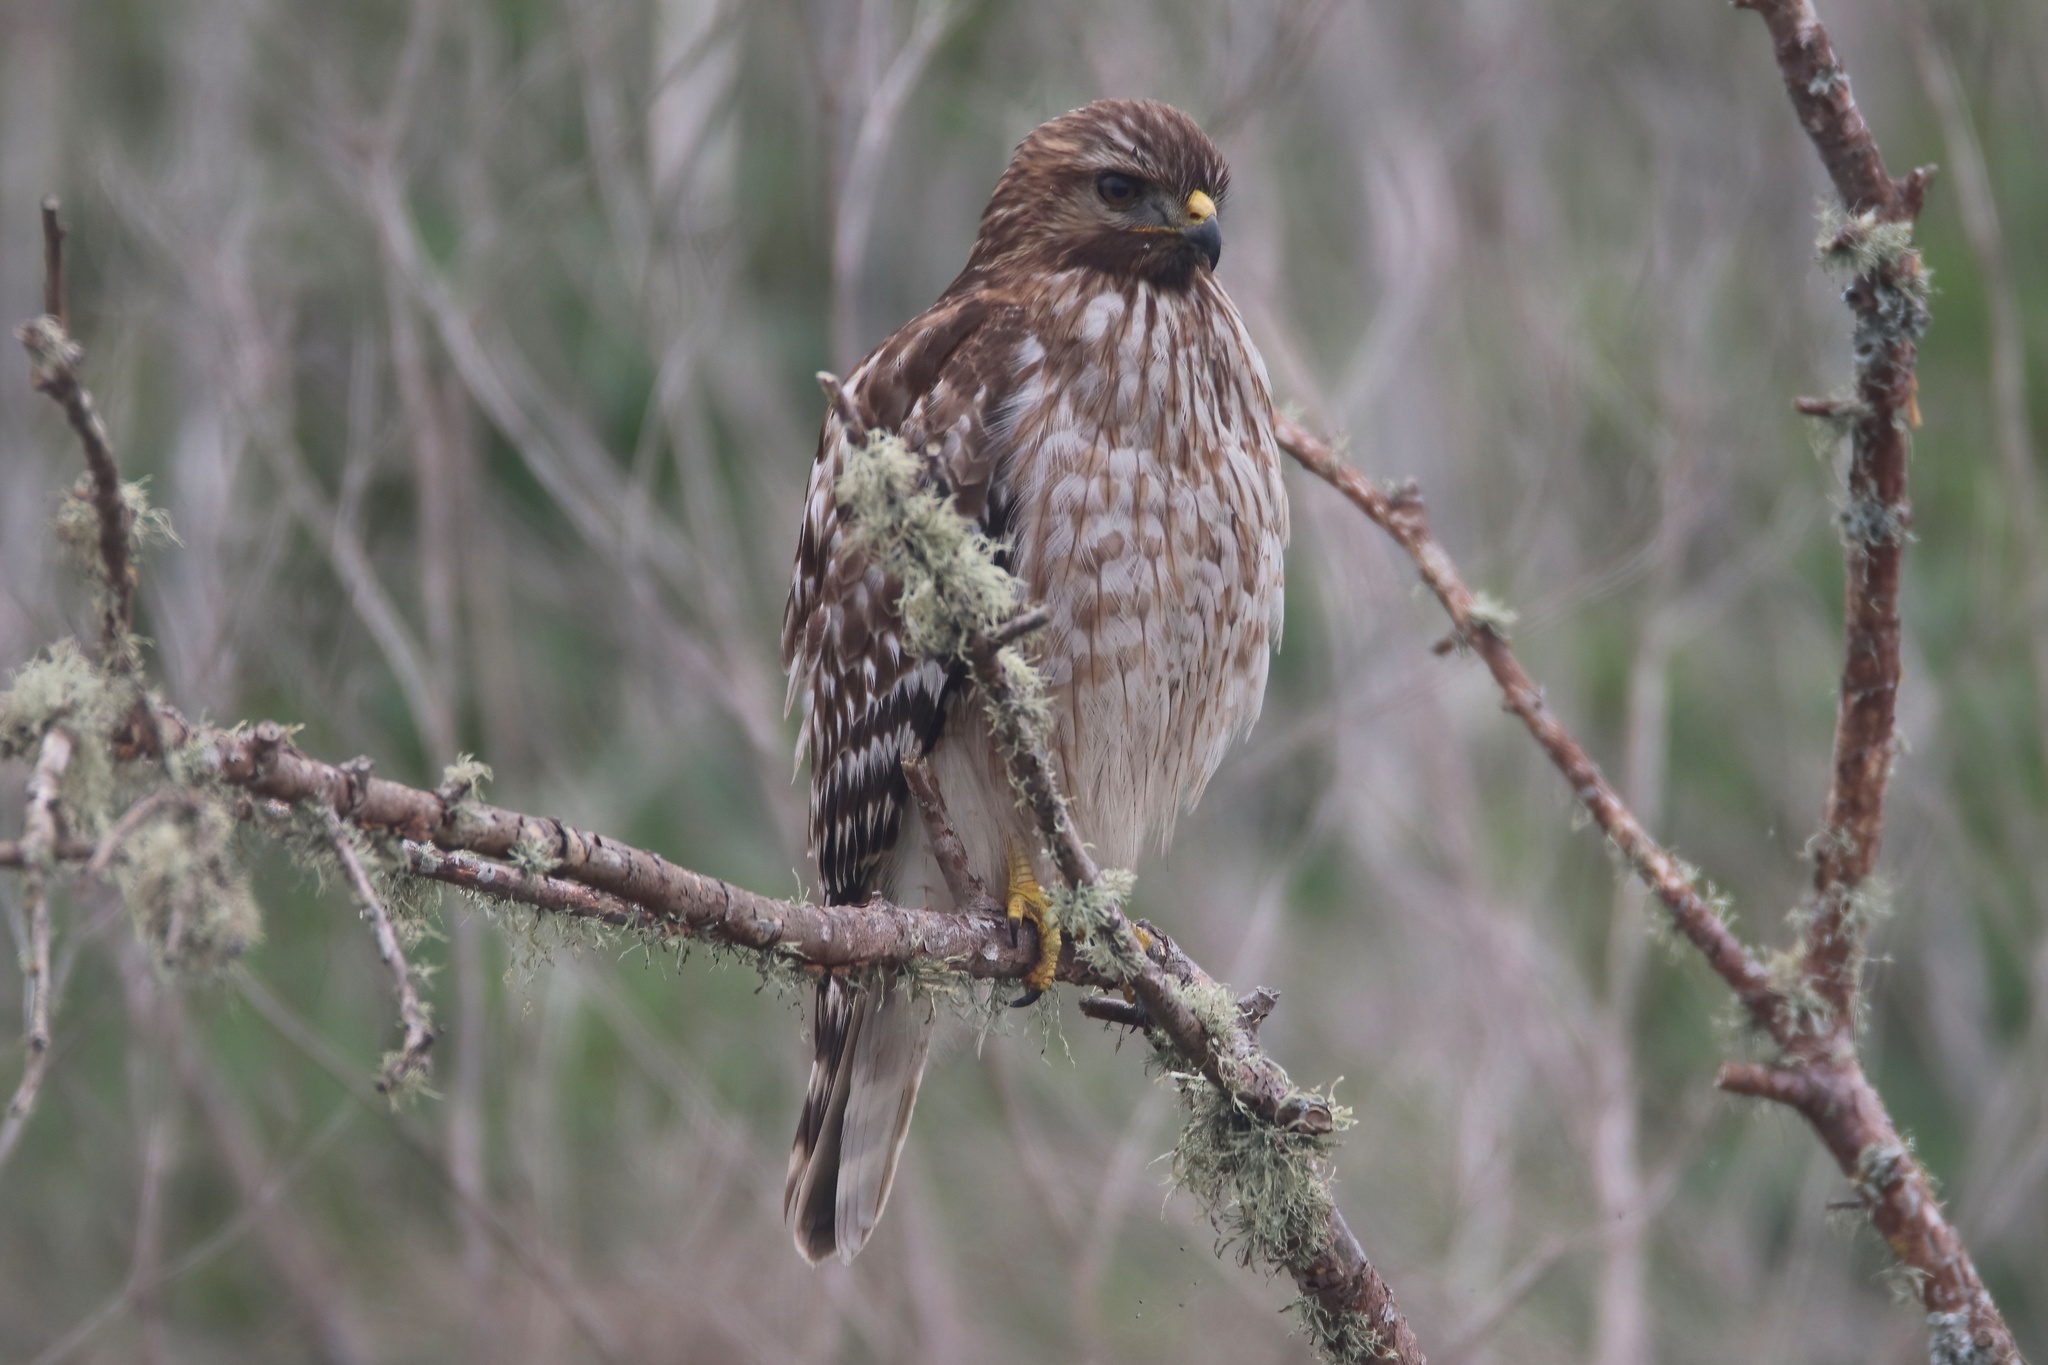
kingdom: Animalia
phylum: Chordata
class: Aves
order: Accipitriformes
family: Accipitridae
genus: Buteo
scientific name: Buteo lineatus
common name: Red-shouldered hawk
